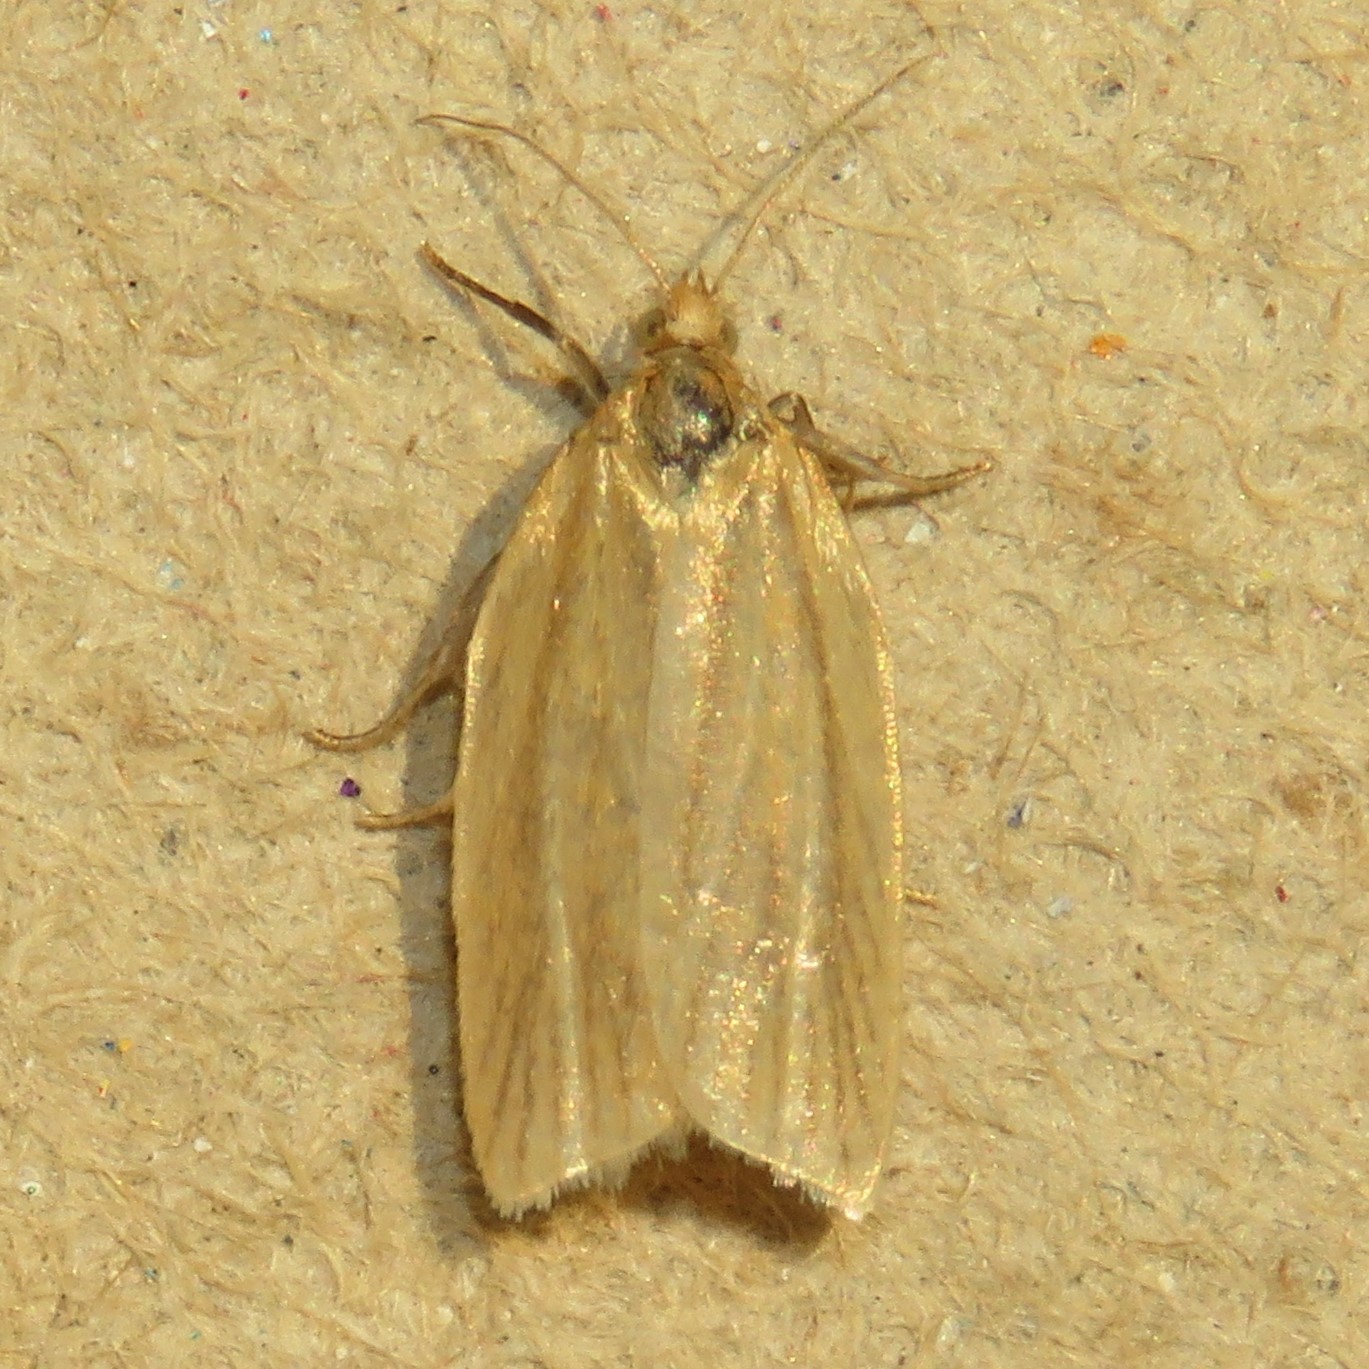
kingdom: Animalia
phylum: Arthropoda
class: Insecta
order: Lepidoptera
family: Tortricidae
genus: Clepsis
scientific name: Clepsis clemensiana
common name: Clemens' clepsis moth
